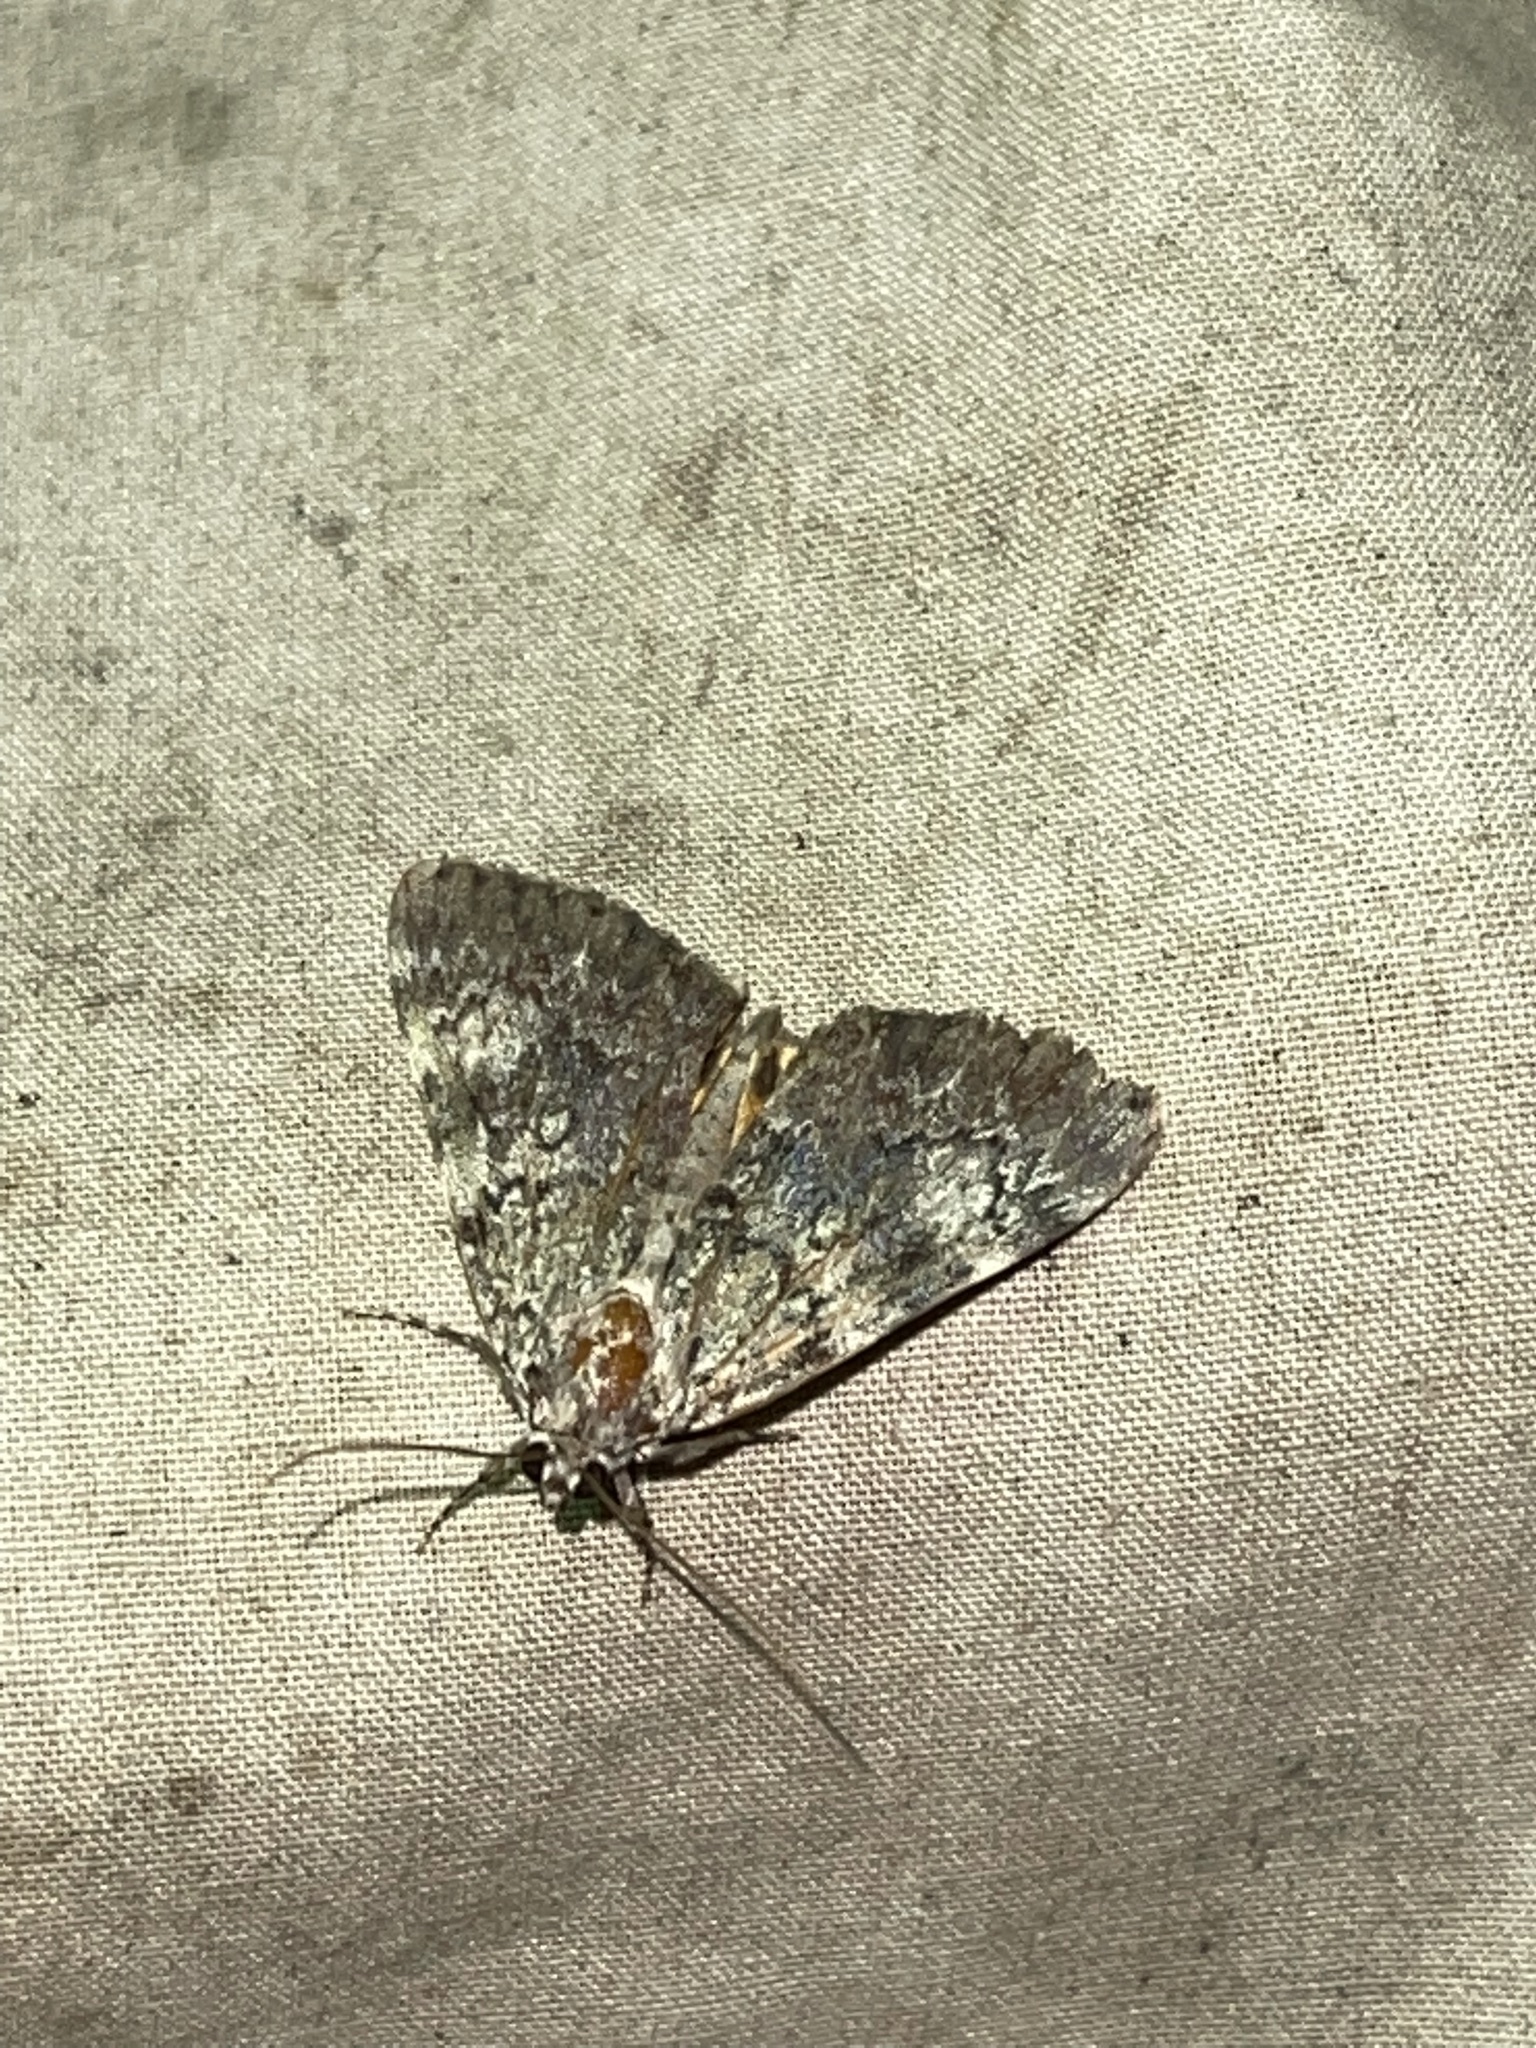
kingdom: Animalia
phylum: Arthropoda
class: Insecta
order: Lepidoptera
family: Erebidae
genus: Catocala
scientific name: Catocala lineella
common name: Little lined underwing
